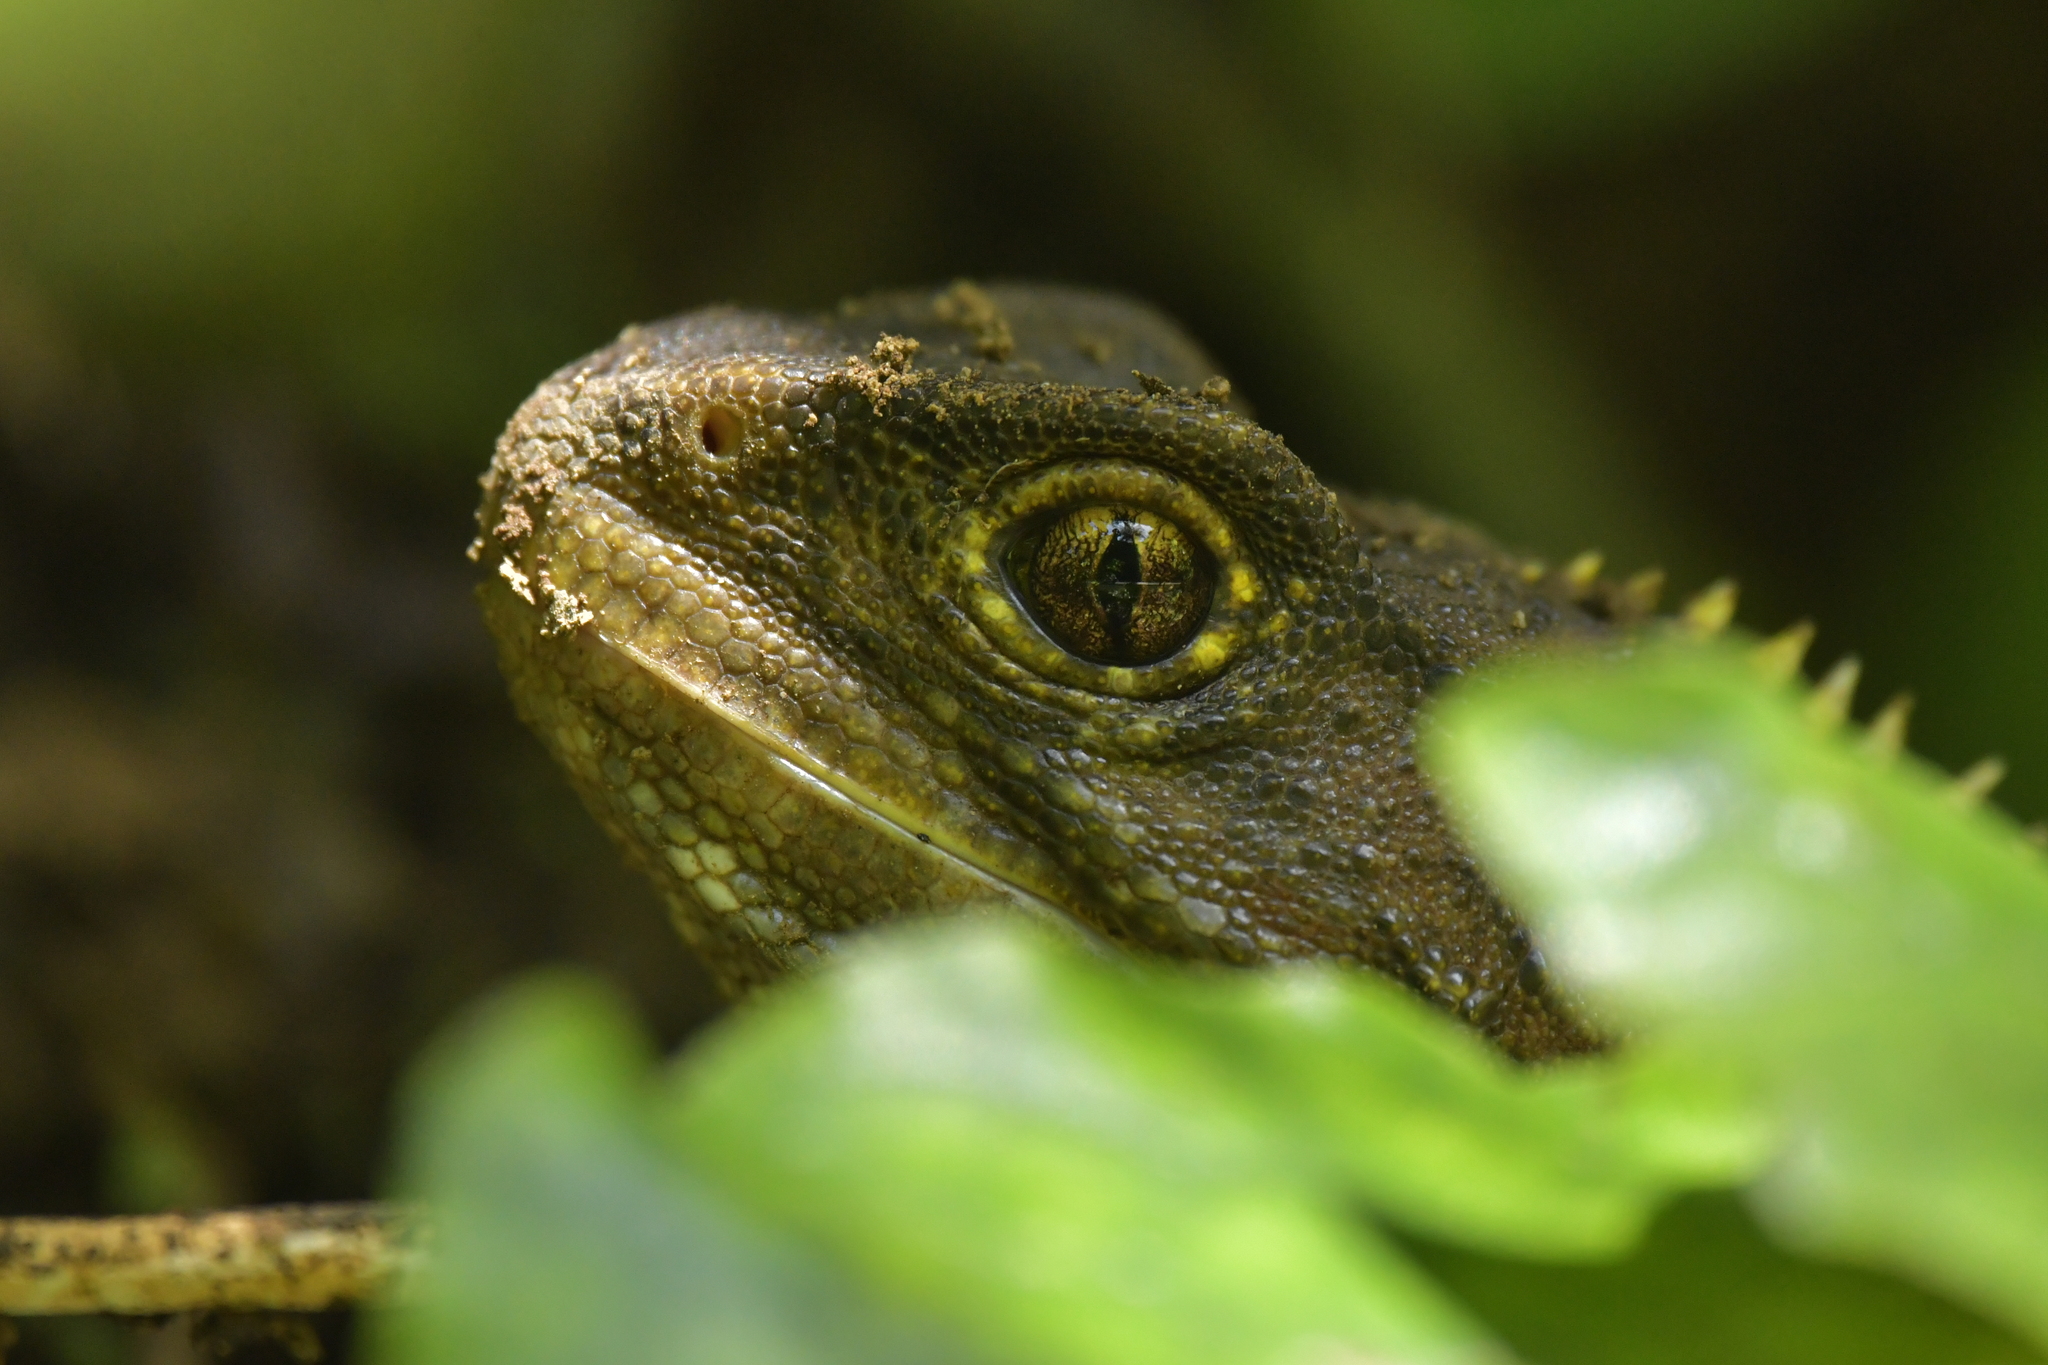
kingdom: Animalia
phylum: Chordata
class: Sphenodontia
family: Sphenodontidae
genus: Sphenodon
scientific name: Sphenodon punctatus
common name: Tuatara
